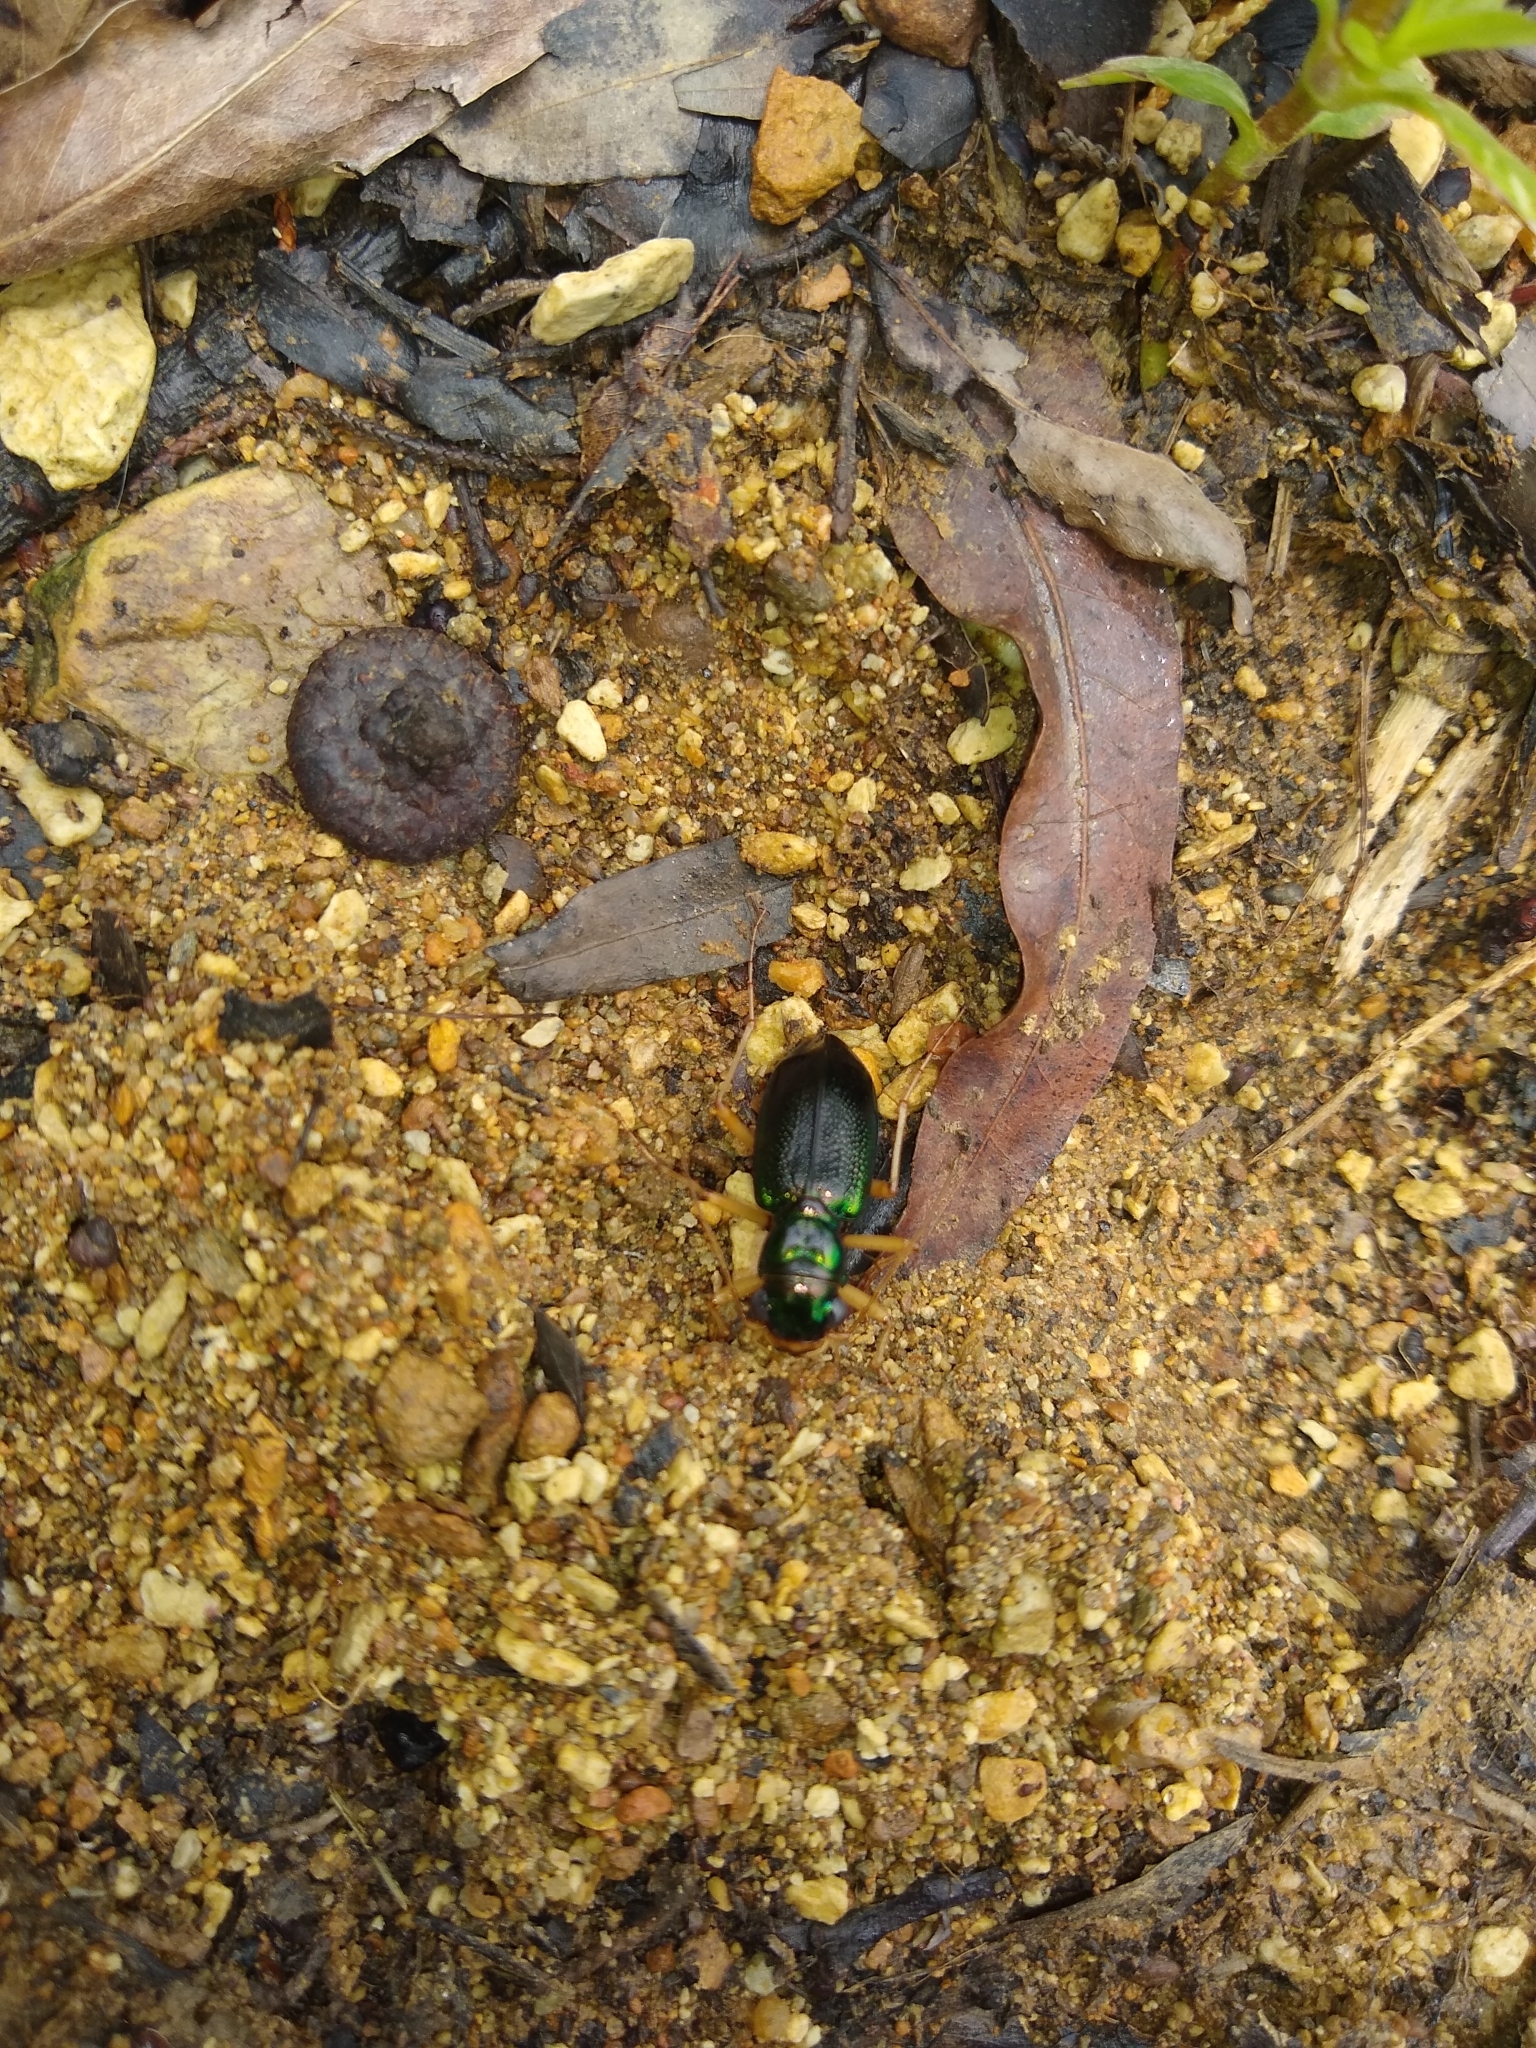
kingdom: Animalia
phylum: Arthropoda
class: Insecta
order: Coleoptera
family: Carabidae
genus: Tetracha
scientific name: Tetracha virginica
